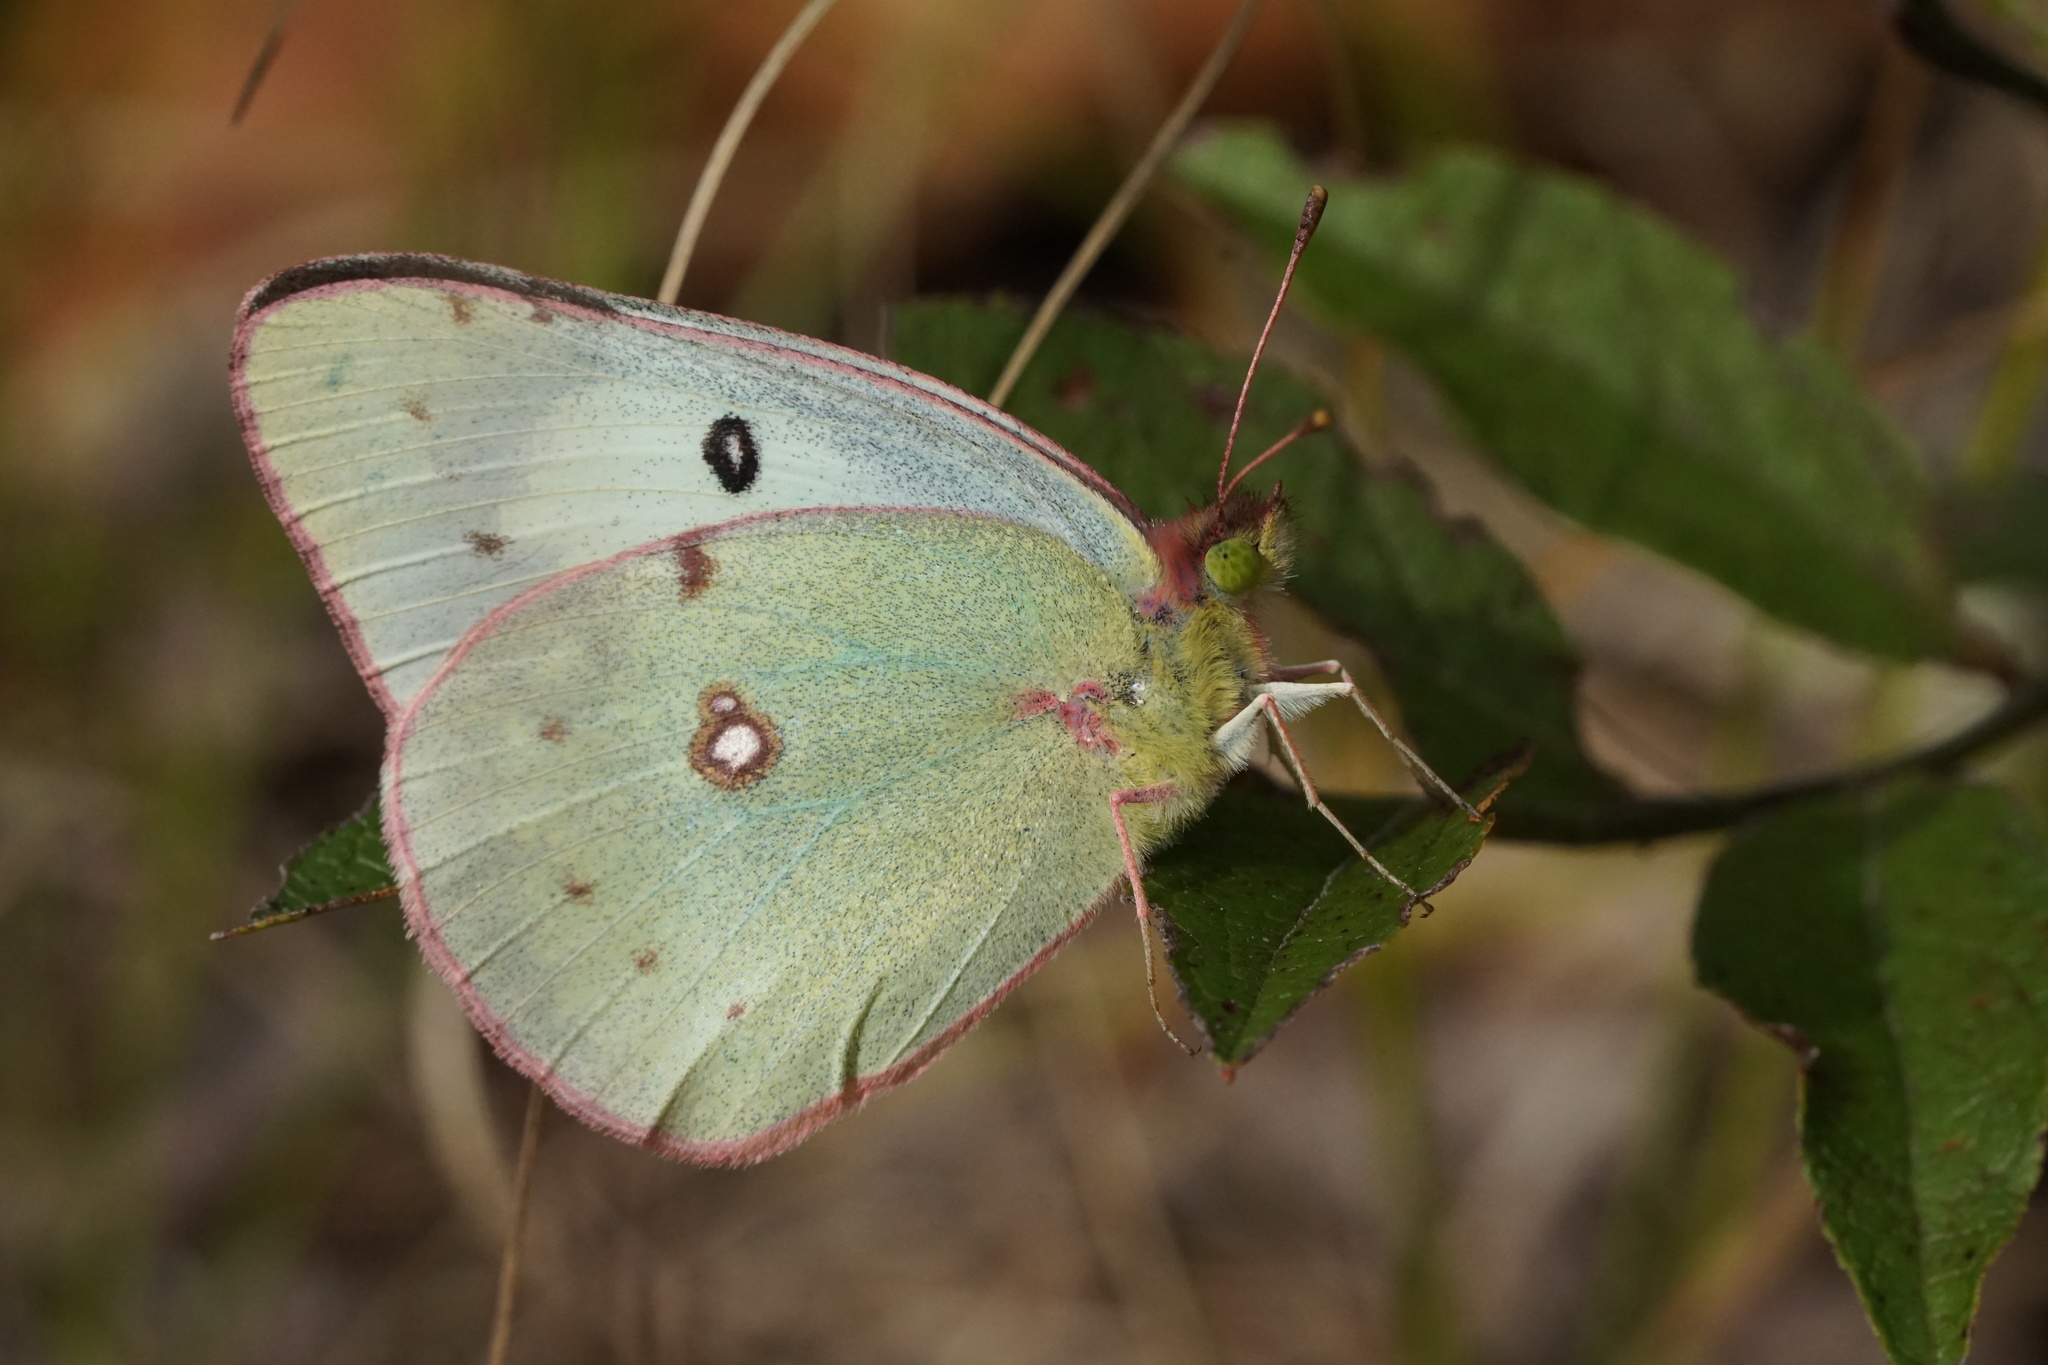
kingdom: Animalia
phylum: Arthropoda
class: Insecta
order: Lepidoptera
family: Pieridae
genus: Colias
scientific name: Colias eurytheme
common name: Alfalfa butterfly
